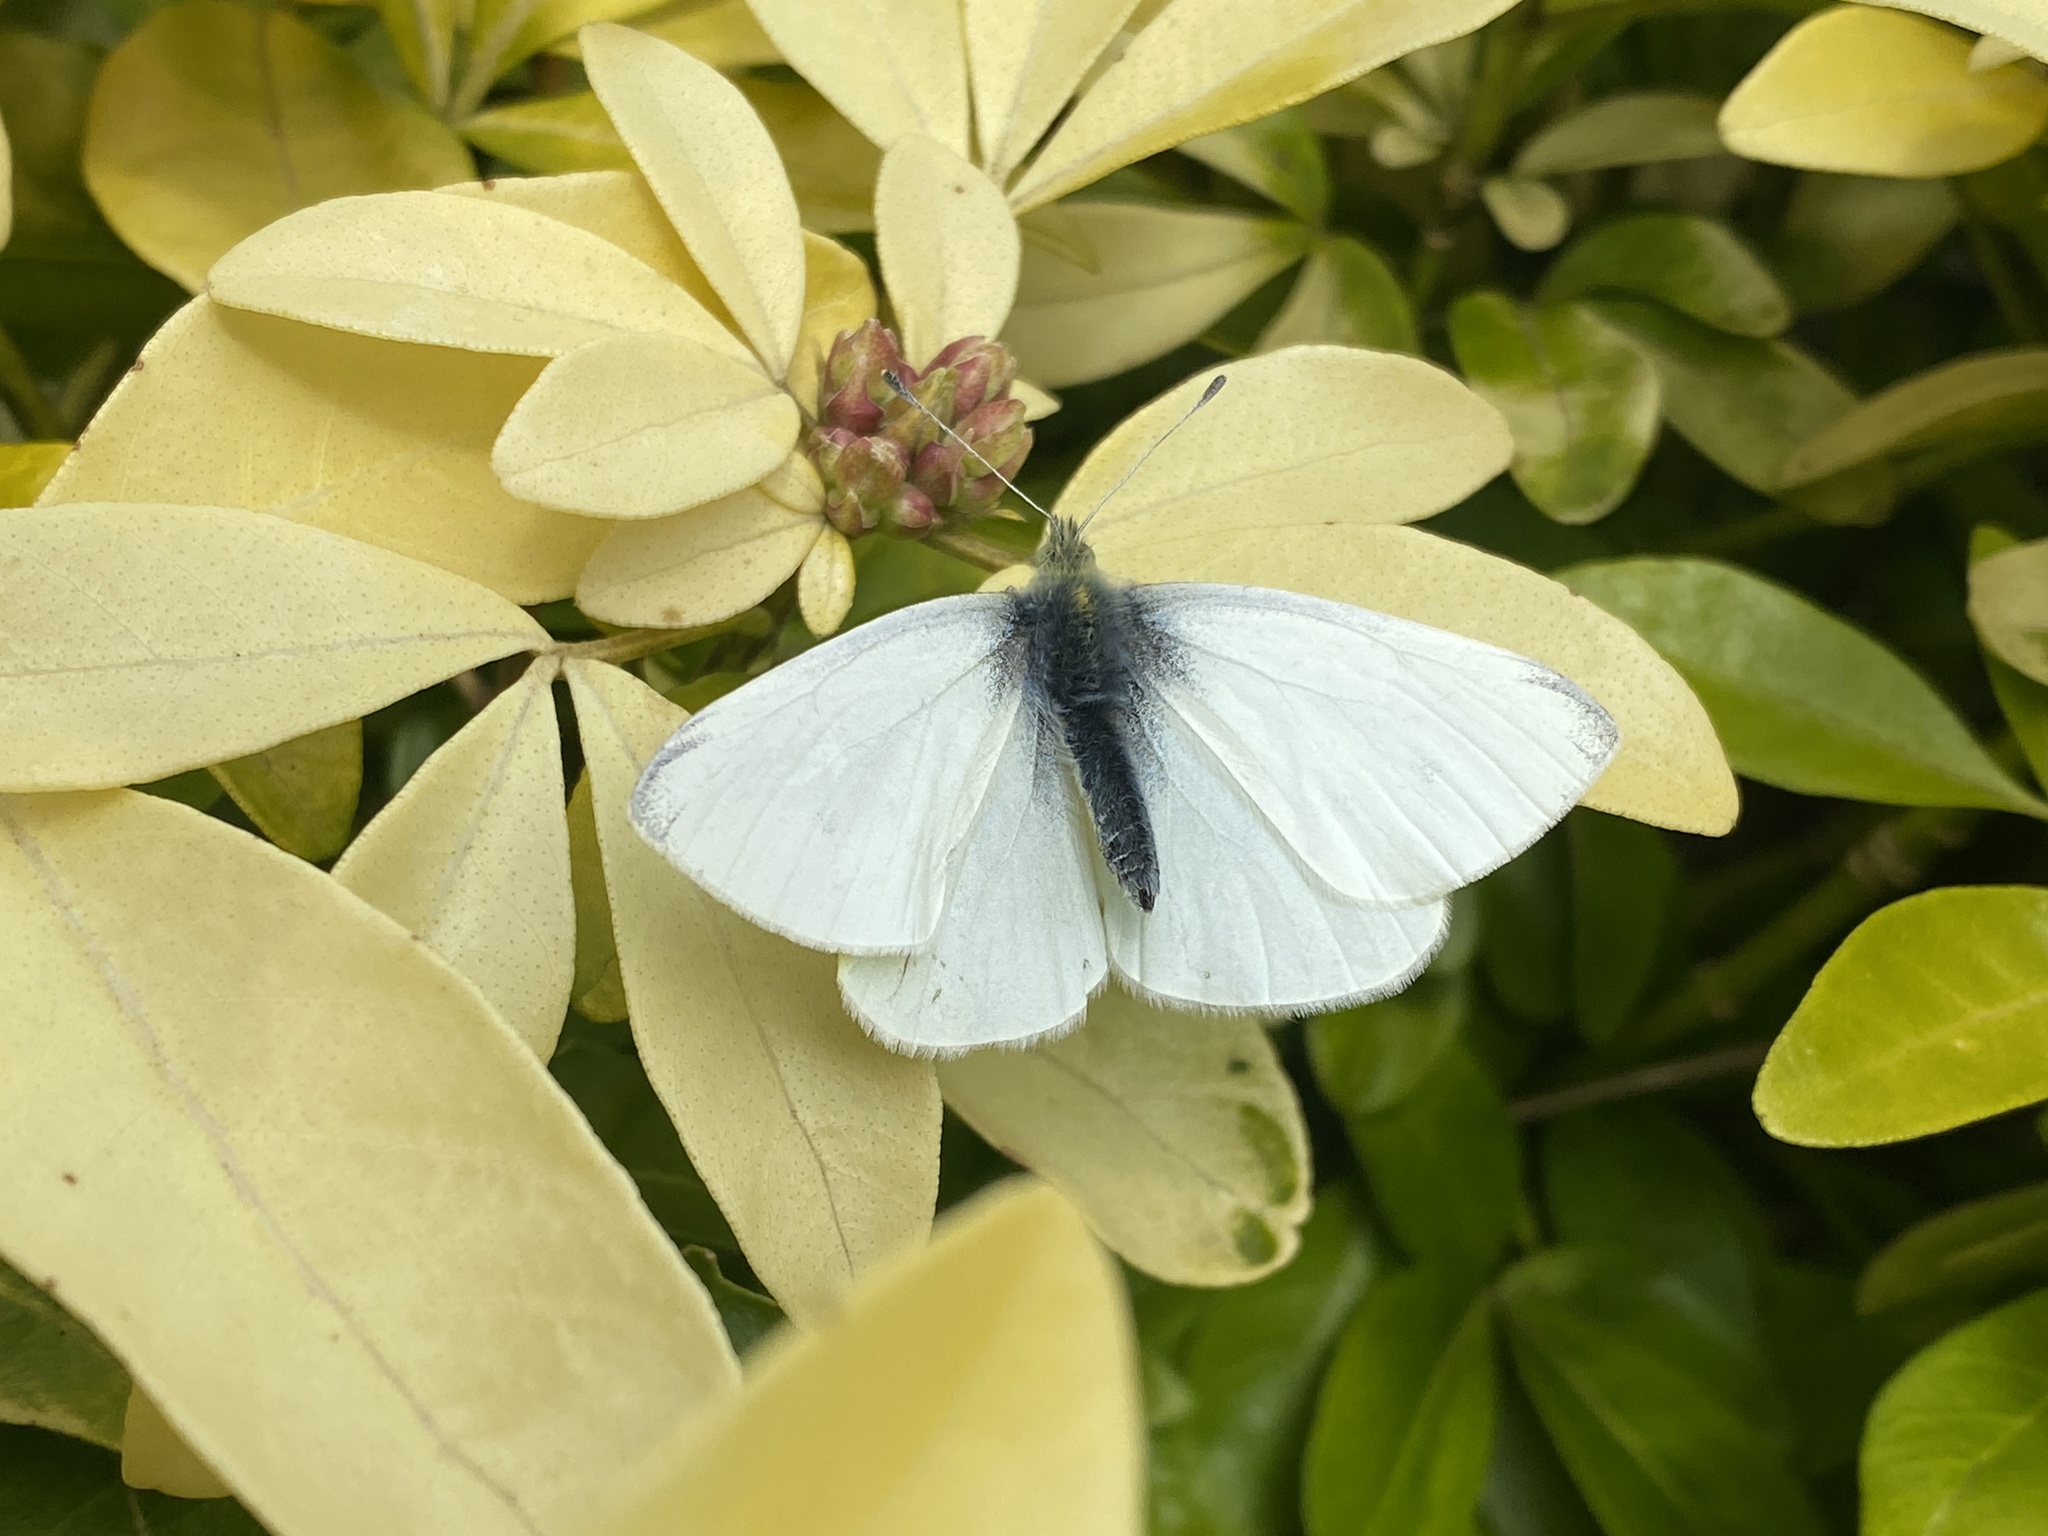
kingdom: Animalia
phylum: Arthropoda
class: Insecta
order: Lepidoptera
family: Pieridae
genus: Pieris
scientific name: Pieris rapae
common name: Small white
